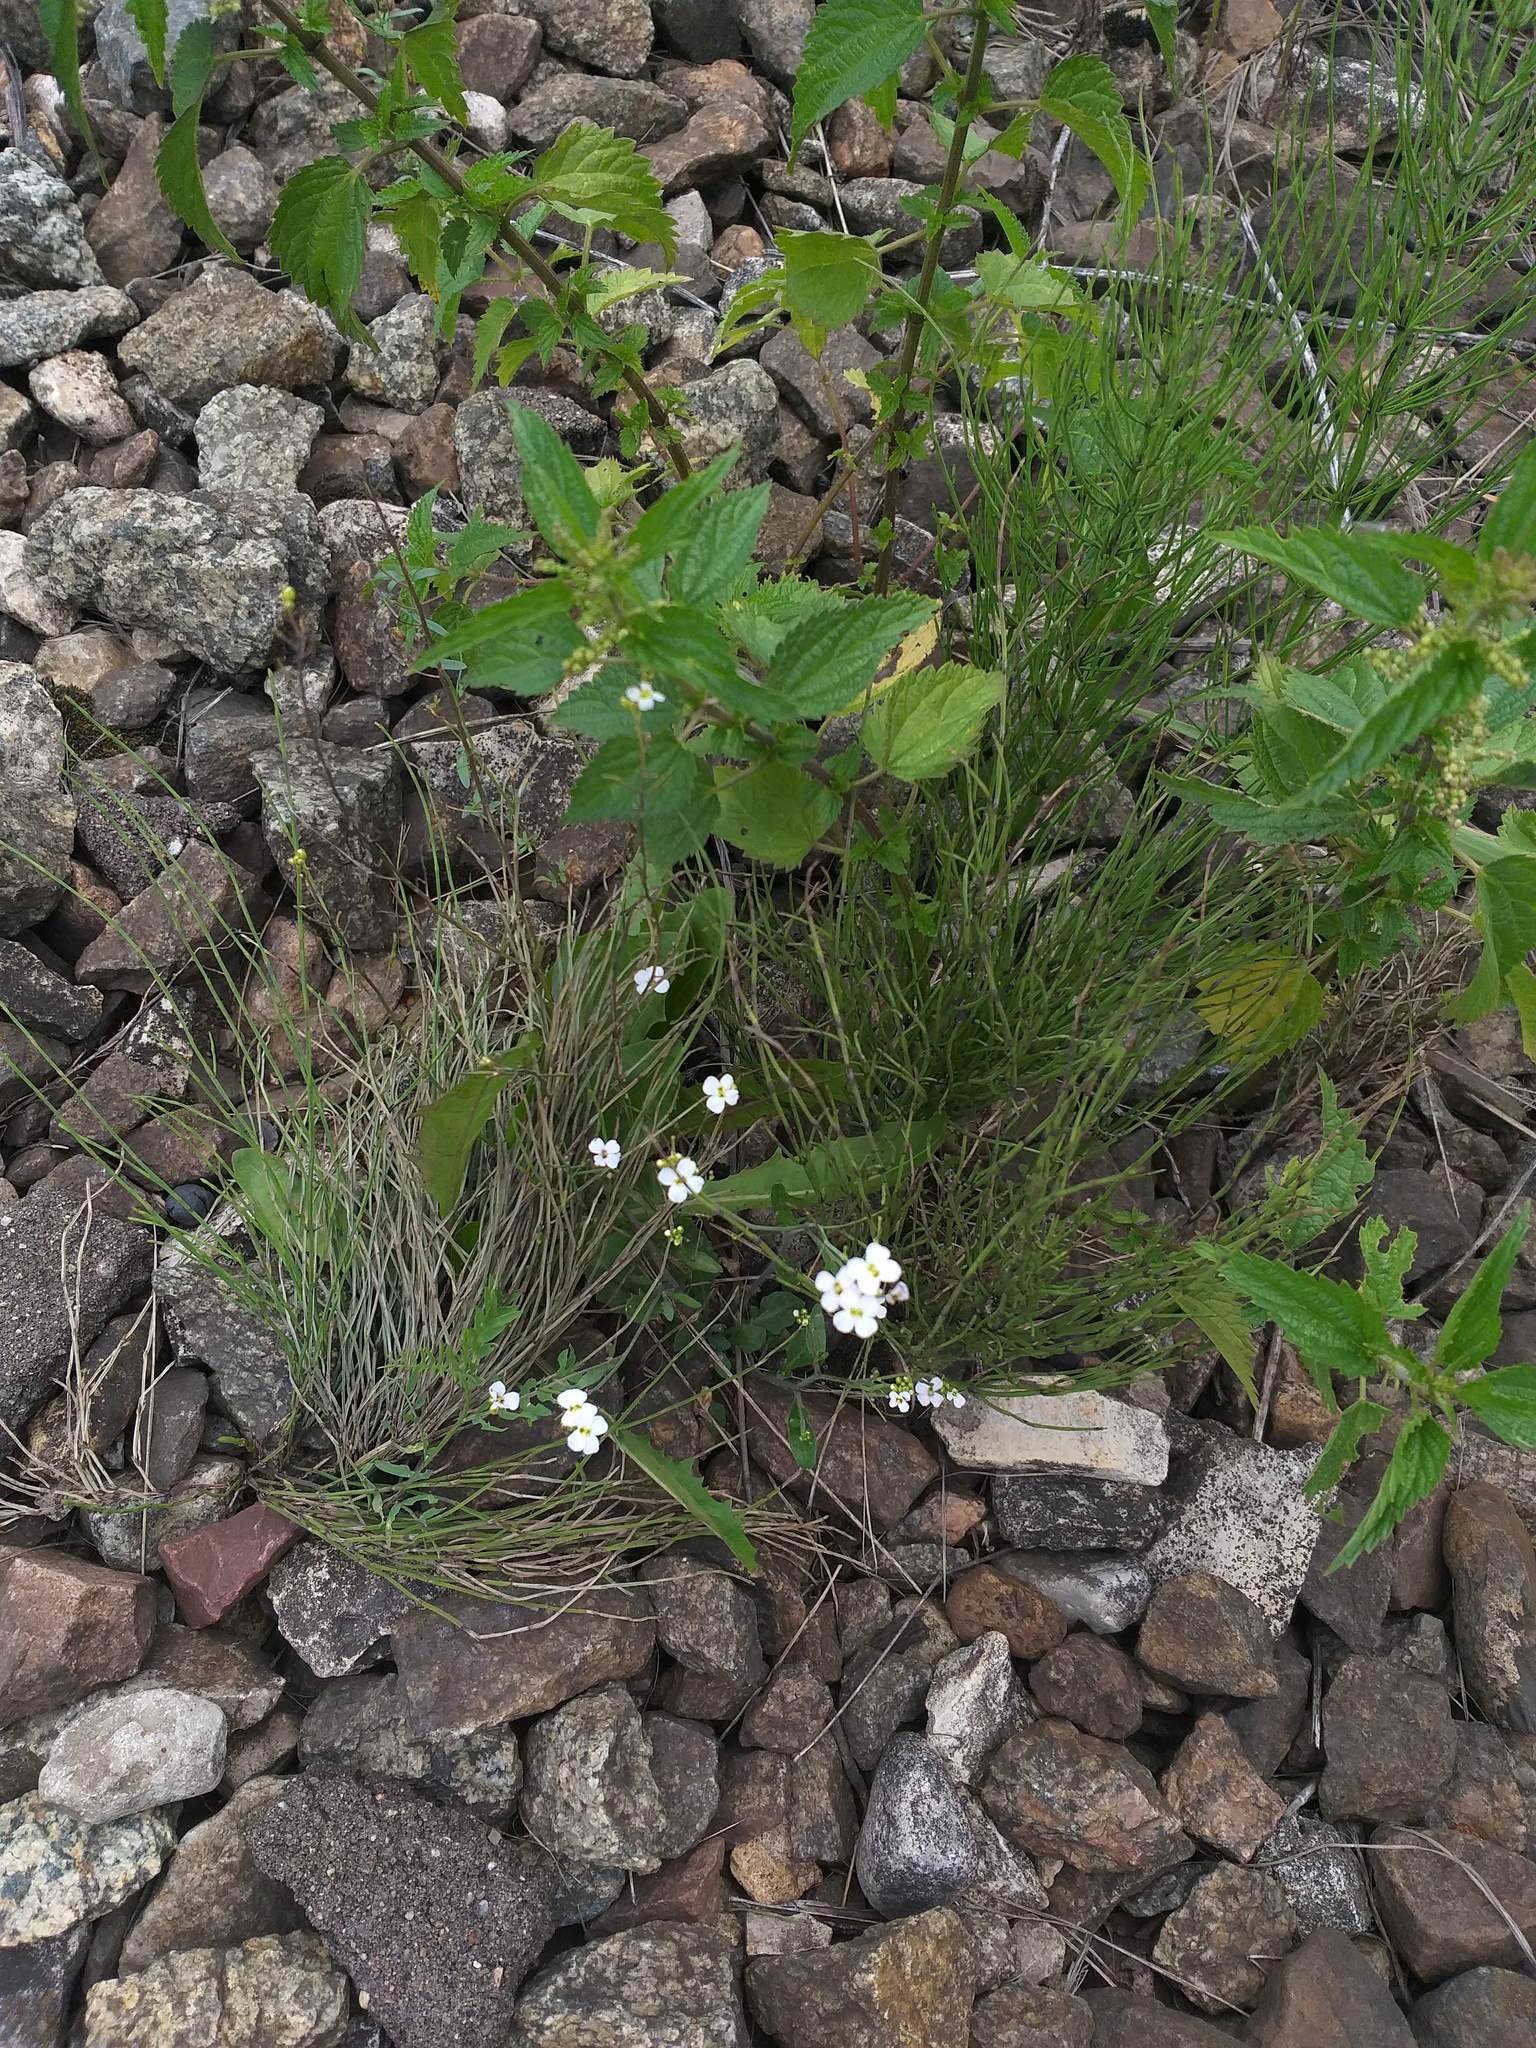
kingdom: Plantae
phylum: Tracheophyta
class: Magnoliopsida
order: Brassicales
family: Brassicaceae
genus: Arabidopsis
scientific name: Arabidopsis arenosa
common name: Sand rock-cress
